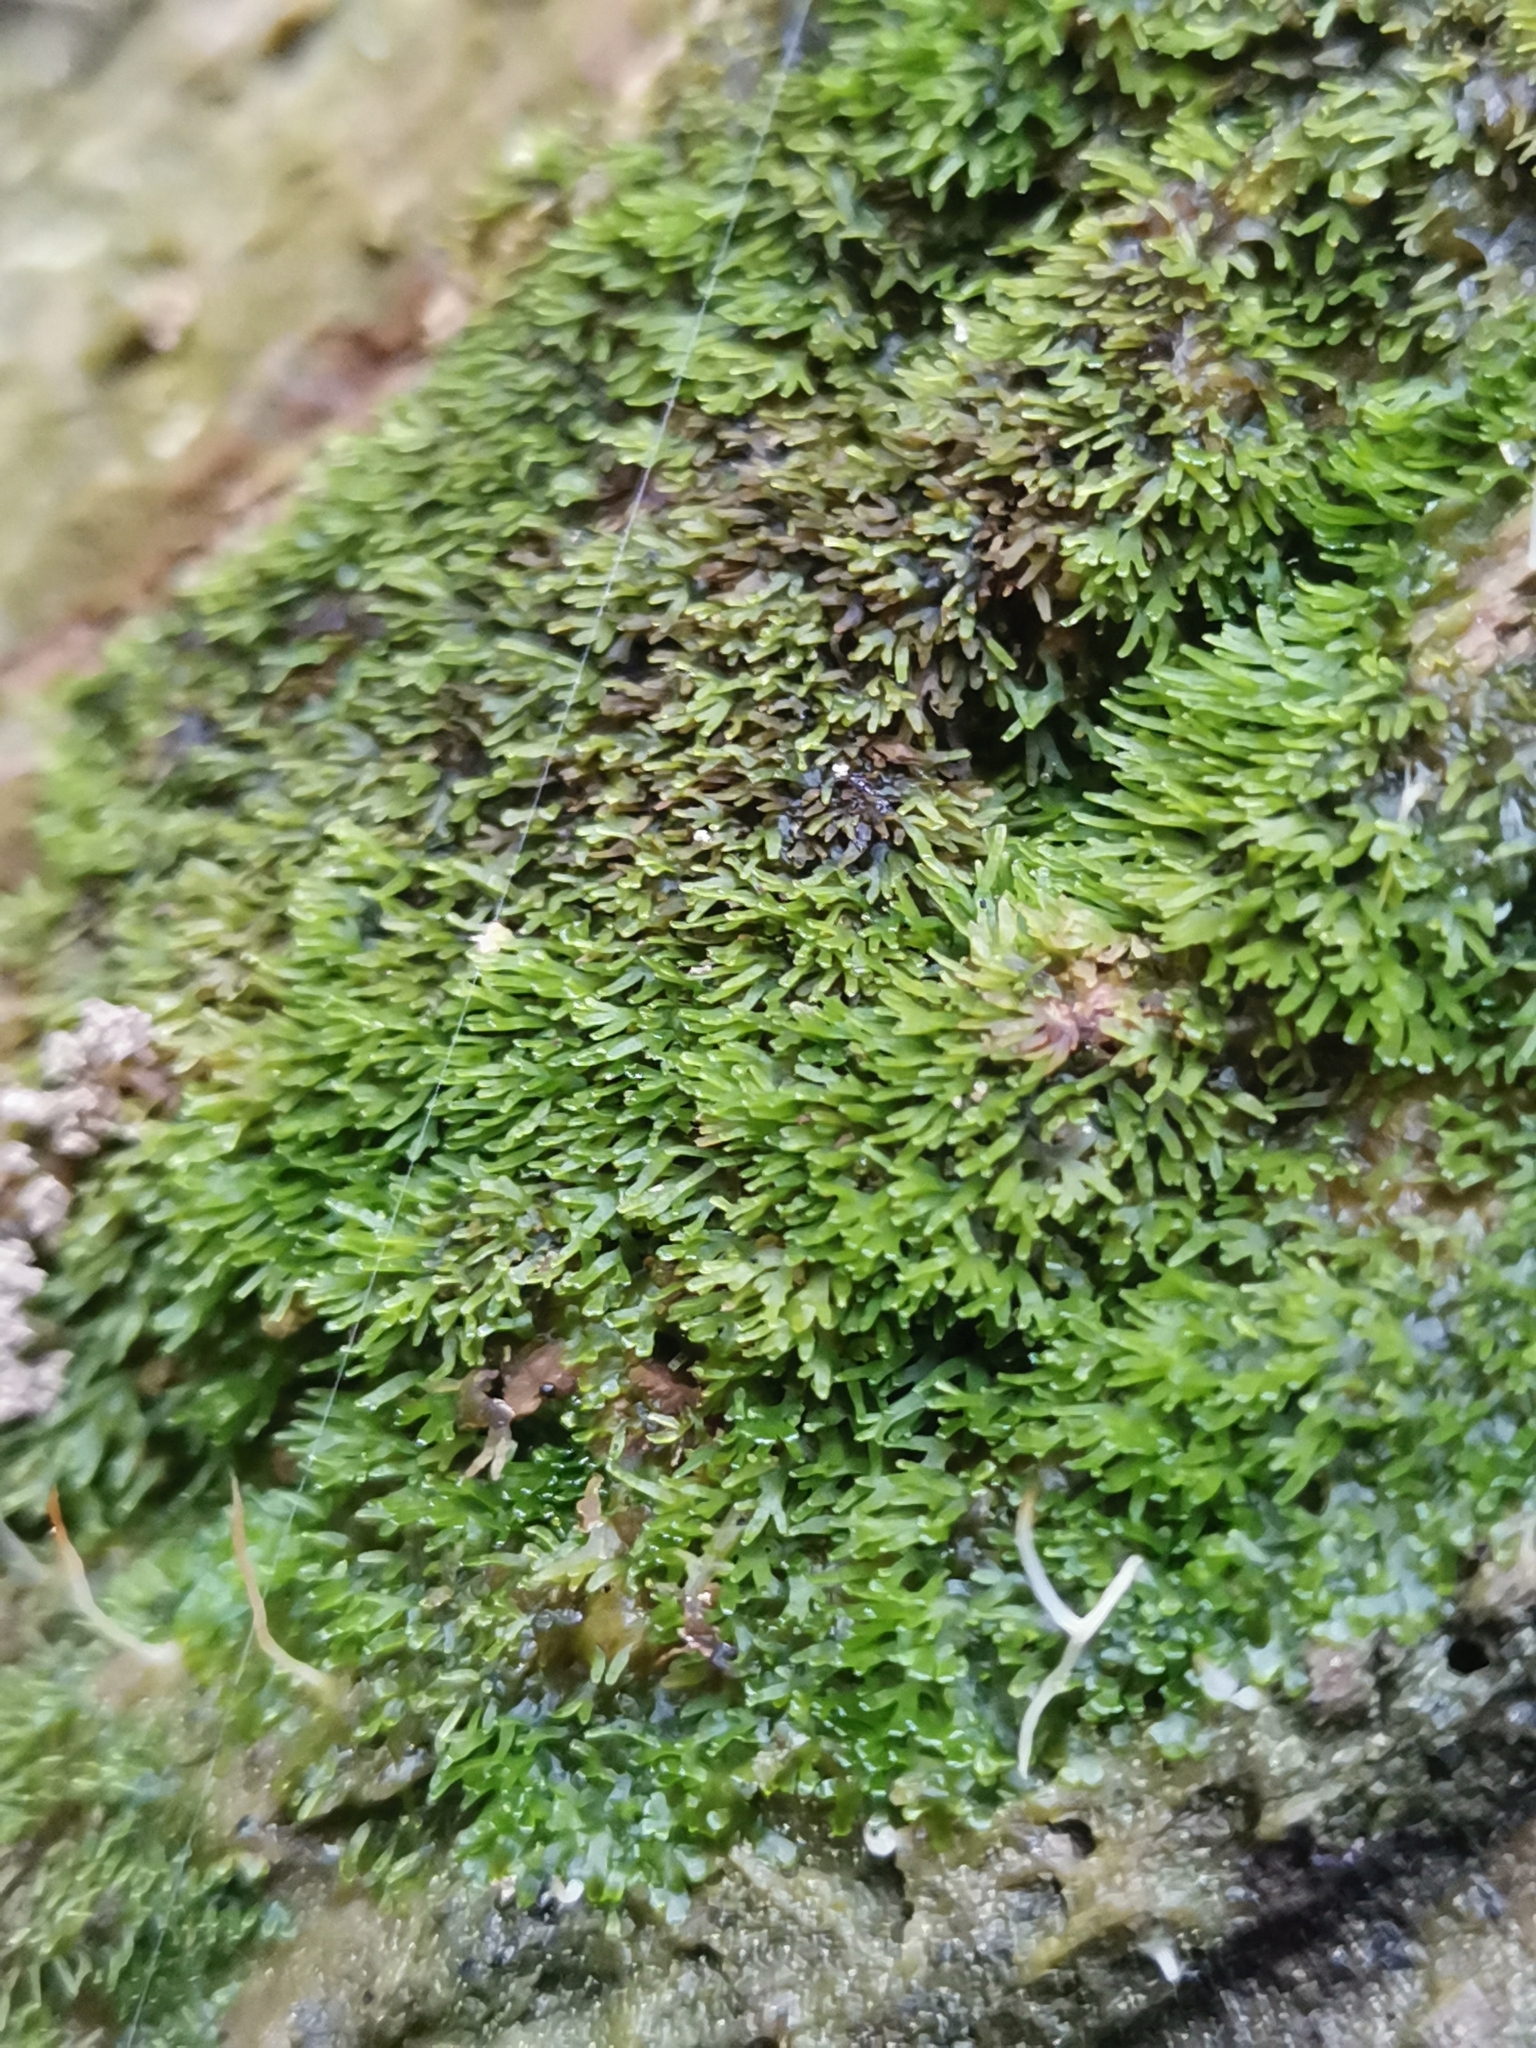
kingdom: Plantae
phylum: Marchantiophyta
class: Jungermanniopsida
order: Metzgeriales
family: Aneuraceae
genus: Riccardia
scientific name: Riccardia palmata
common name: Palmate germanderwort
